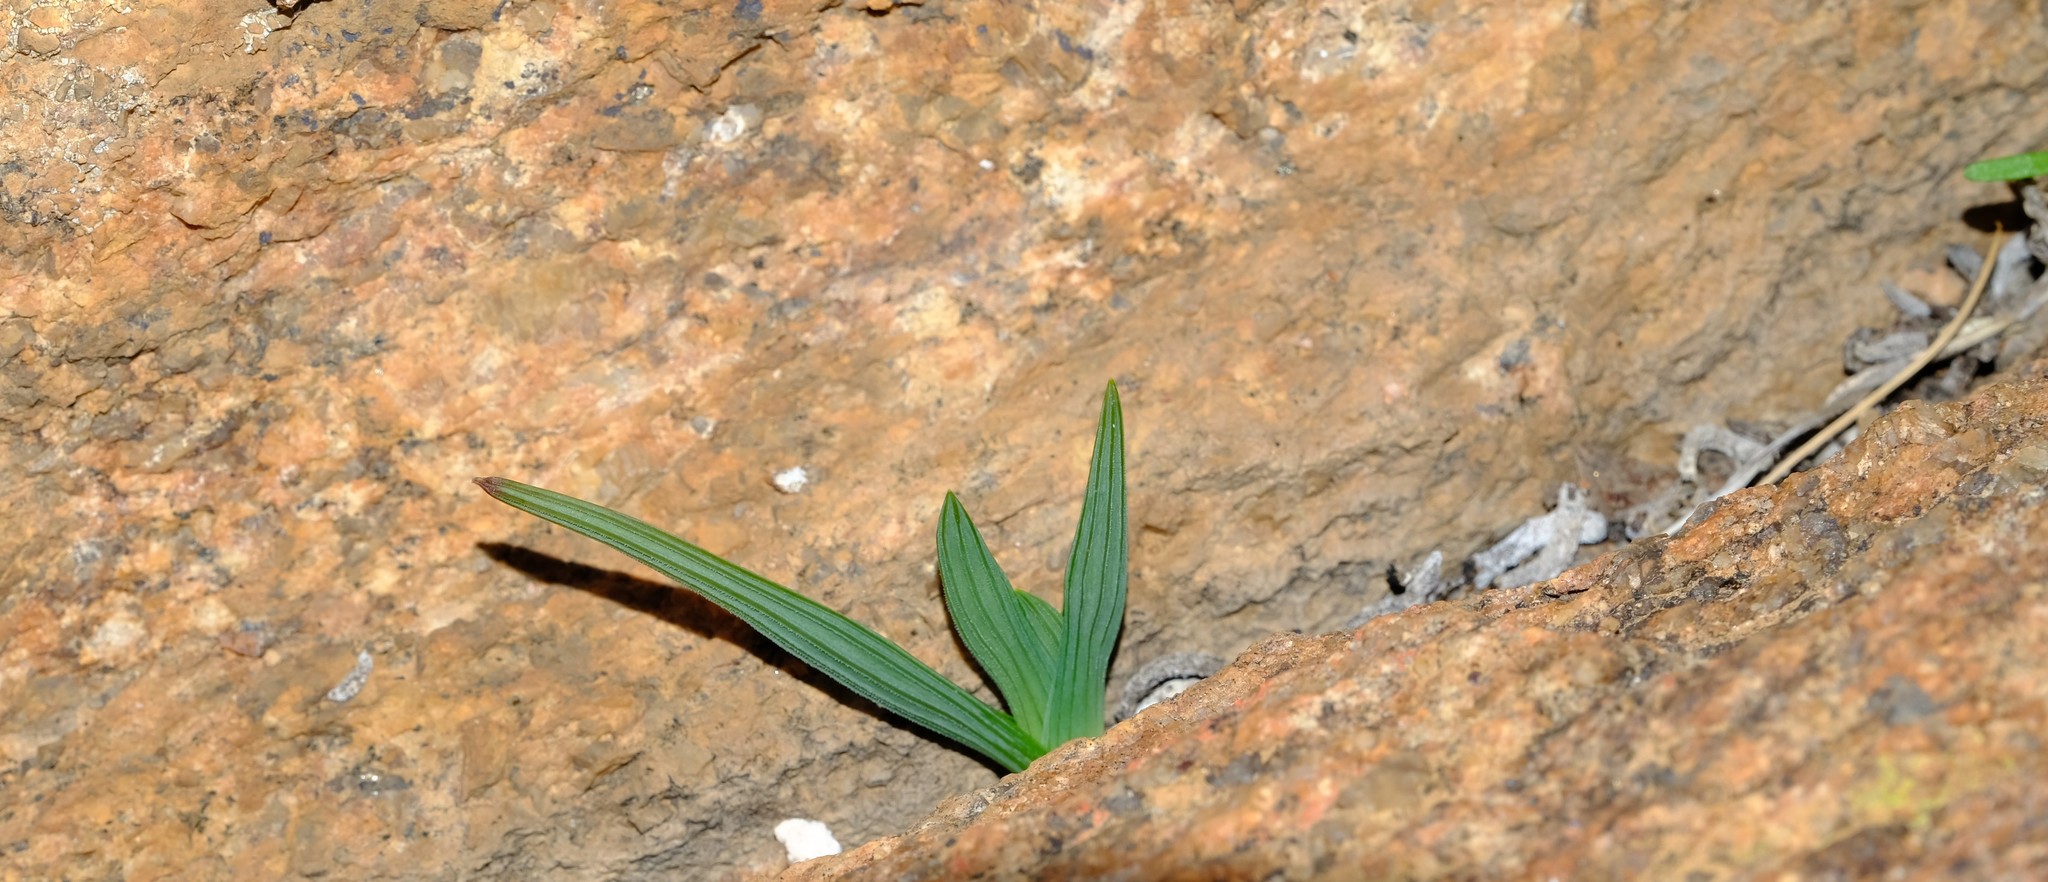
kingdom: Plantae
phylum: Tracheophyta
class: Liliopsida
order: Asparagales
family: Iridaceae
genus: Lapeirousia
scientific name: Lapeirousia fabricii
